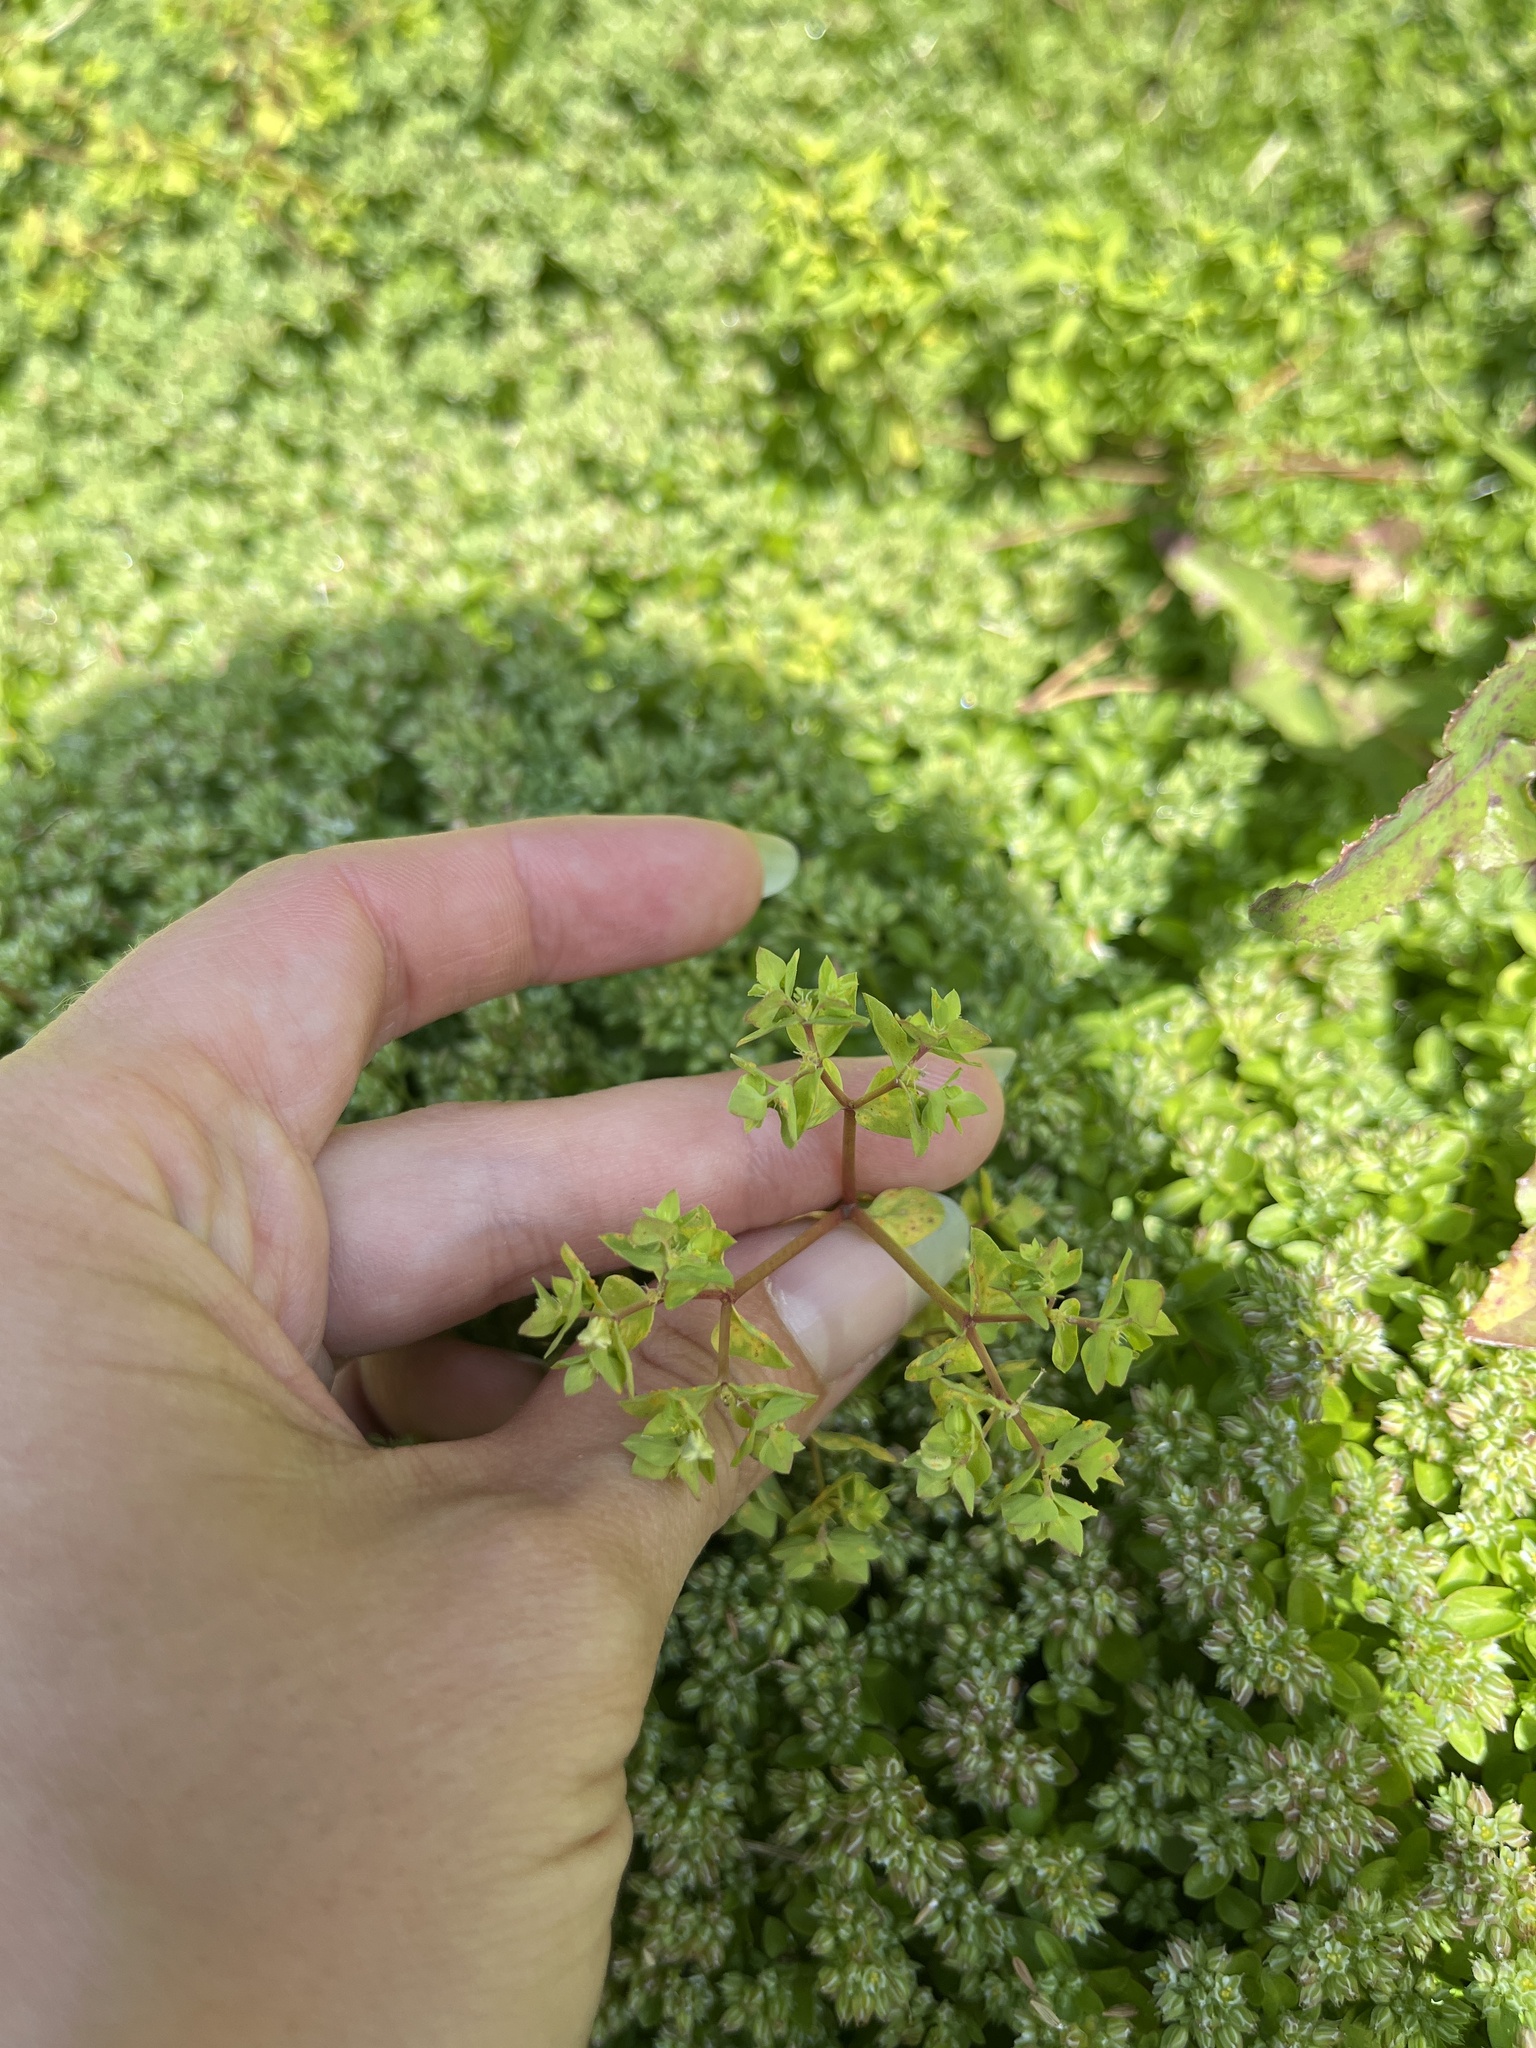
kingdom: Plantae
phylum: Tracheophyta
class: Magnoliopsida
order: Malpighiales
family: Euphorbiaceae
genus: Euphorbia
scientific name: Euphorbia peplus
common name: Petty spurge
